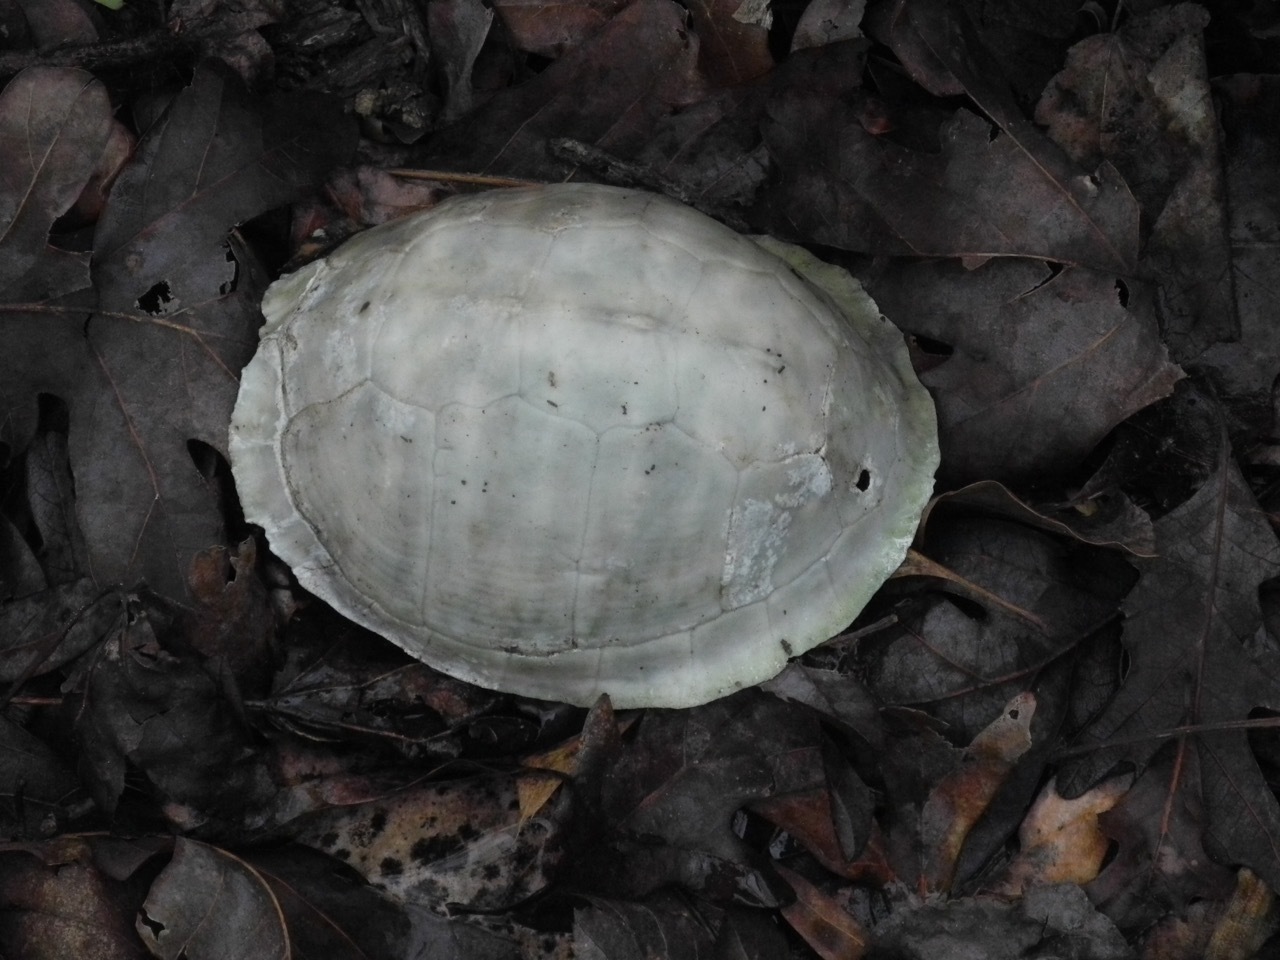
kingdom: Animalia
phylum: Chordata
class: Testudines
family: Emydidae
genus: Terrapene
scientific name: Terrapene carolina
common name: Common box turtle
